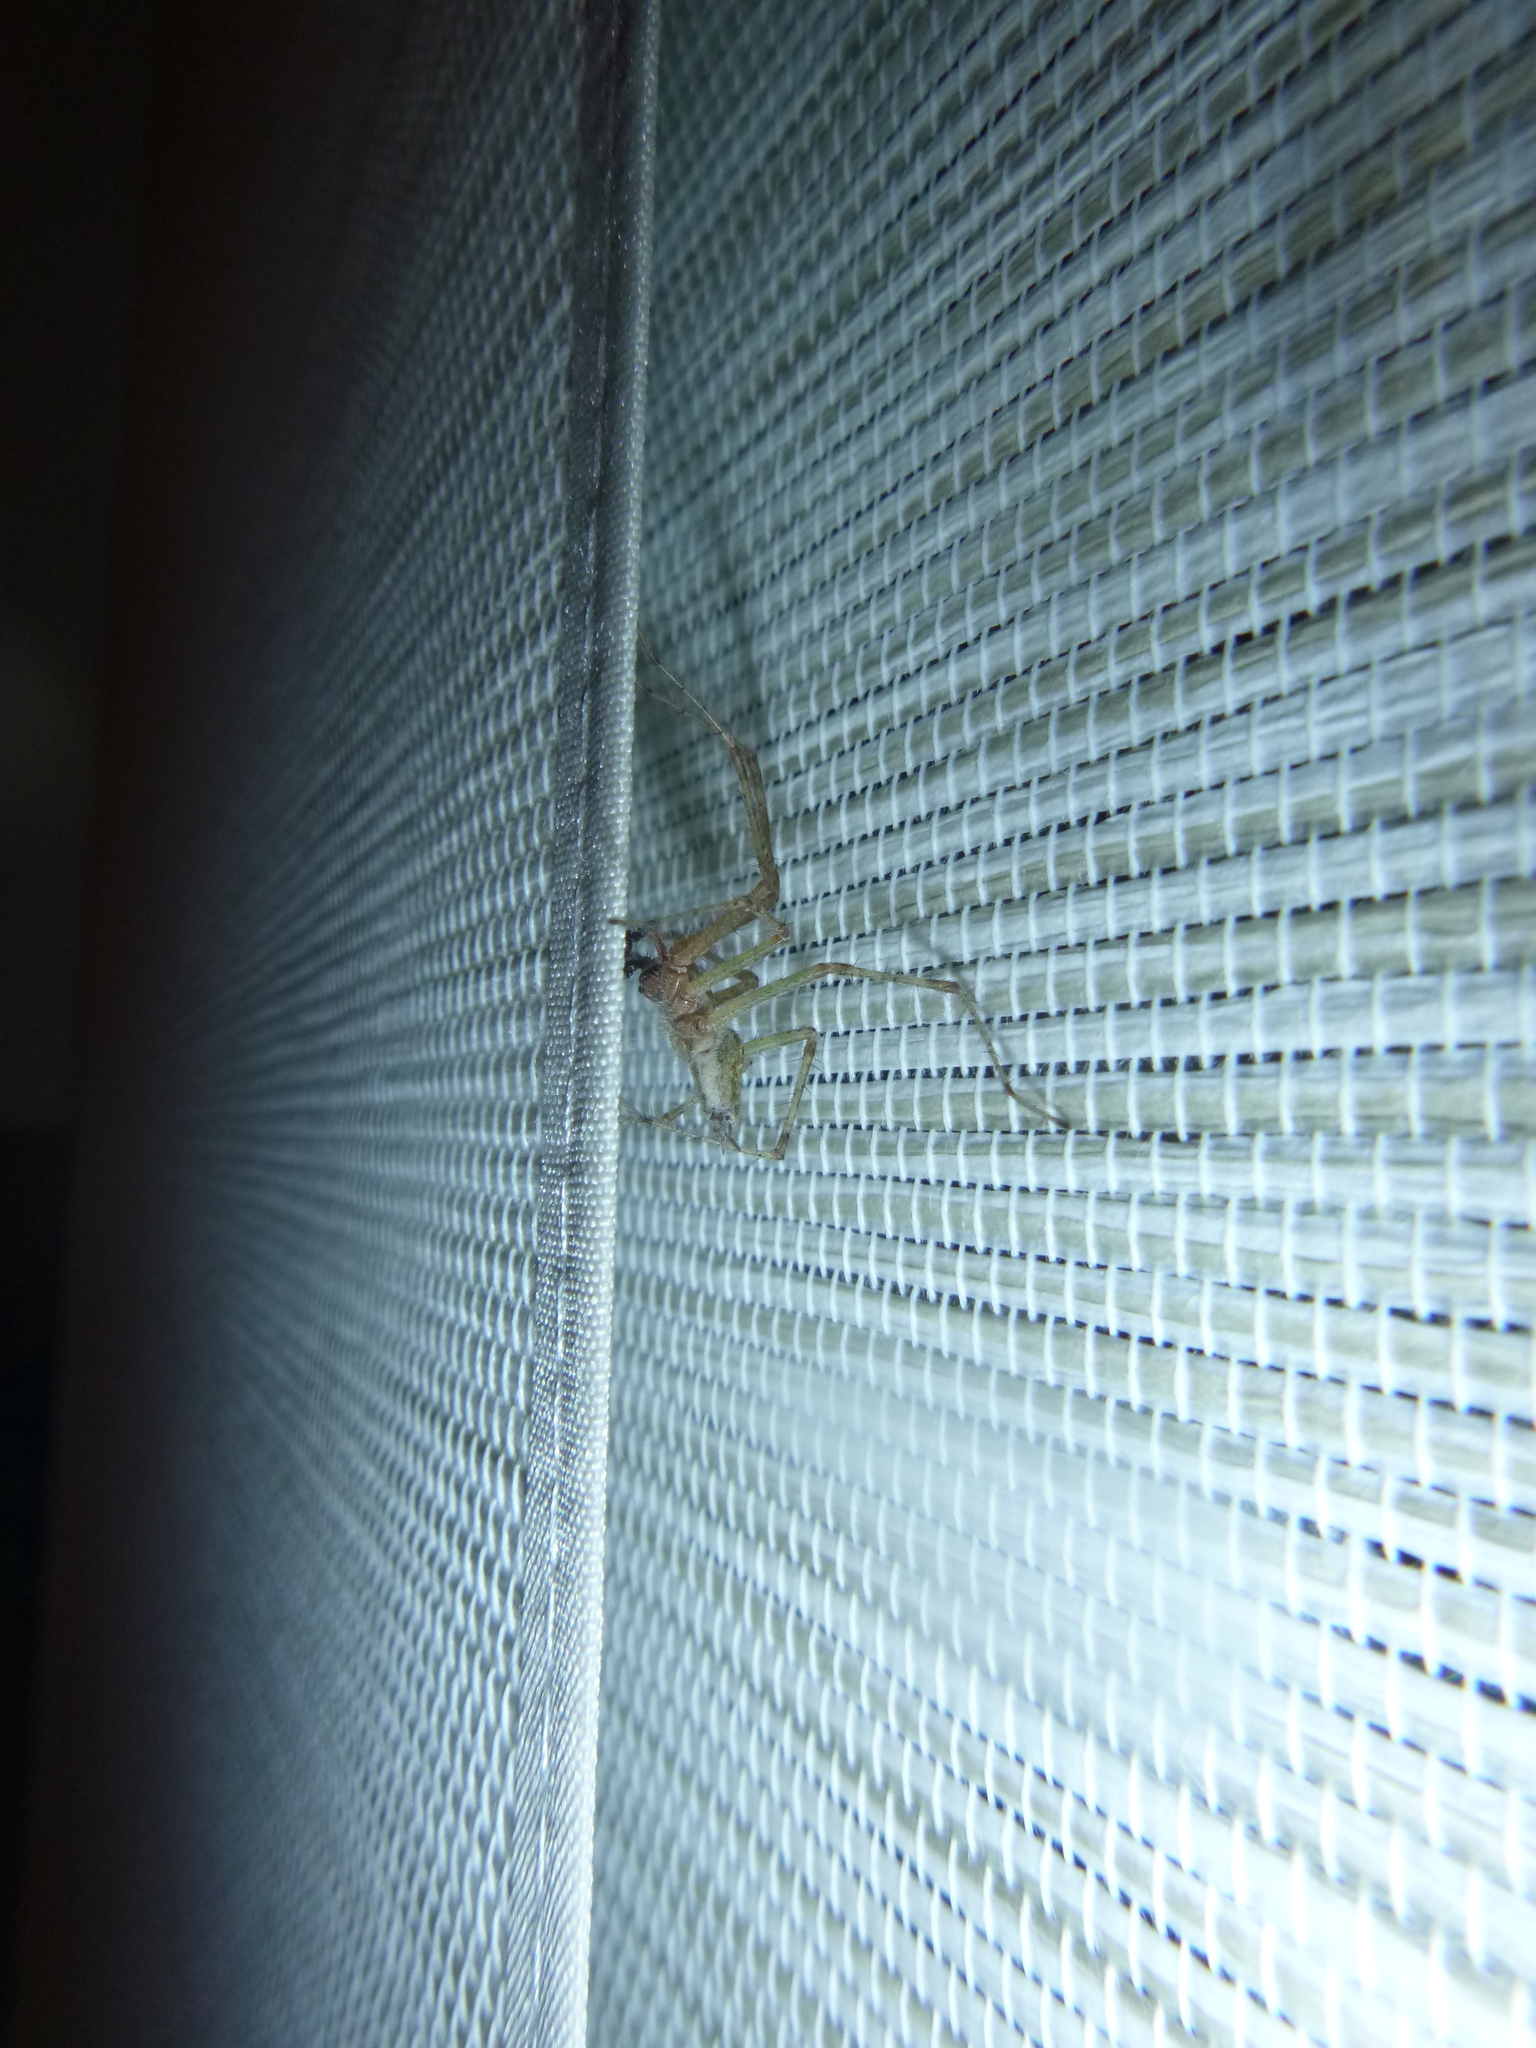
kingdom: Animalia
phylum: Arthropoda
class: Arachnida
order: Araneae
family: Agelenidae
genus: Allagelena
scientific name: Allagelena gracilens
